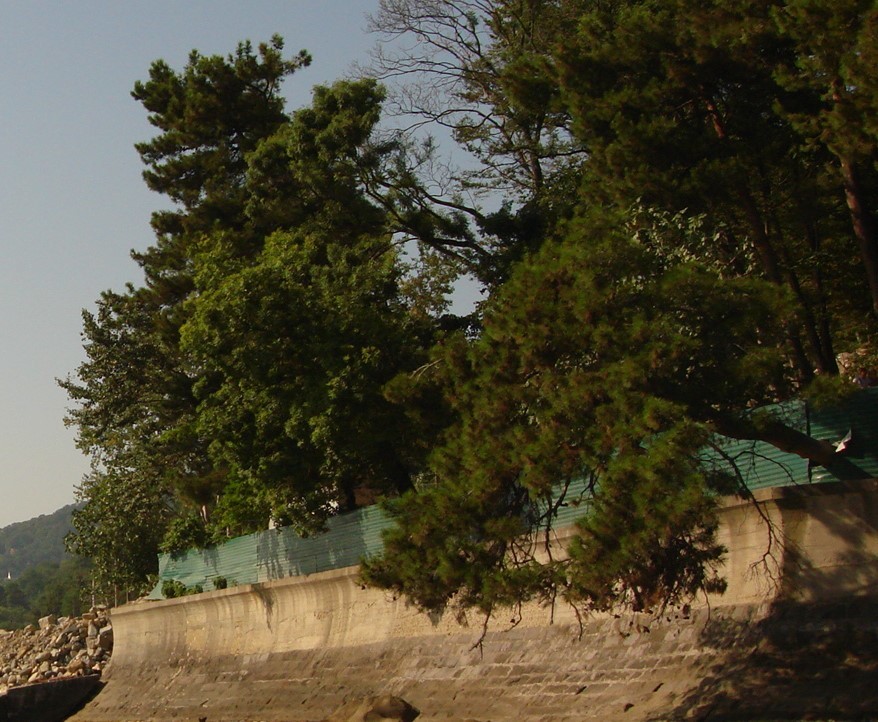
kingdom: Plantae
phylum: Tracheophyta
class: Pinopsida
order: Pinales
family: Pinaceae
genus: Pinus
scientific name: Pinus brutia
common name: Turkish pine
